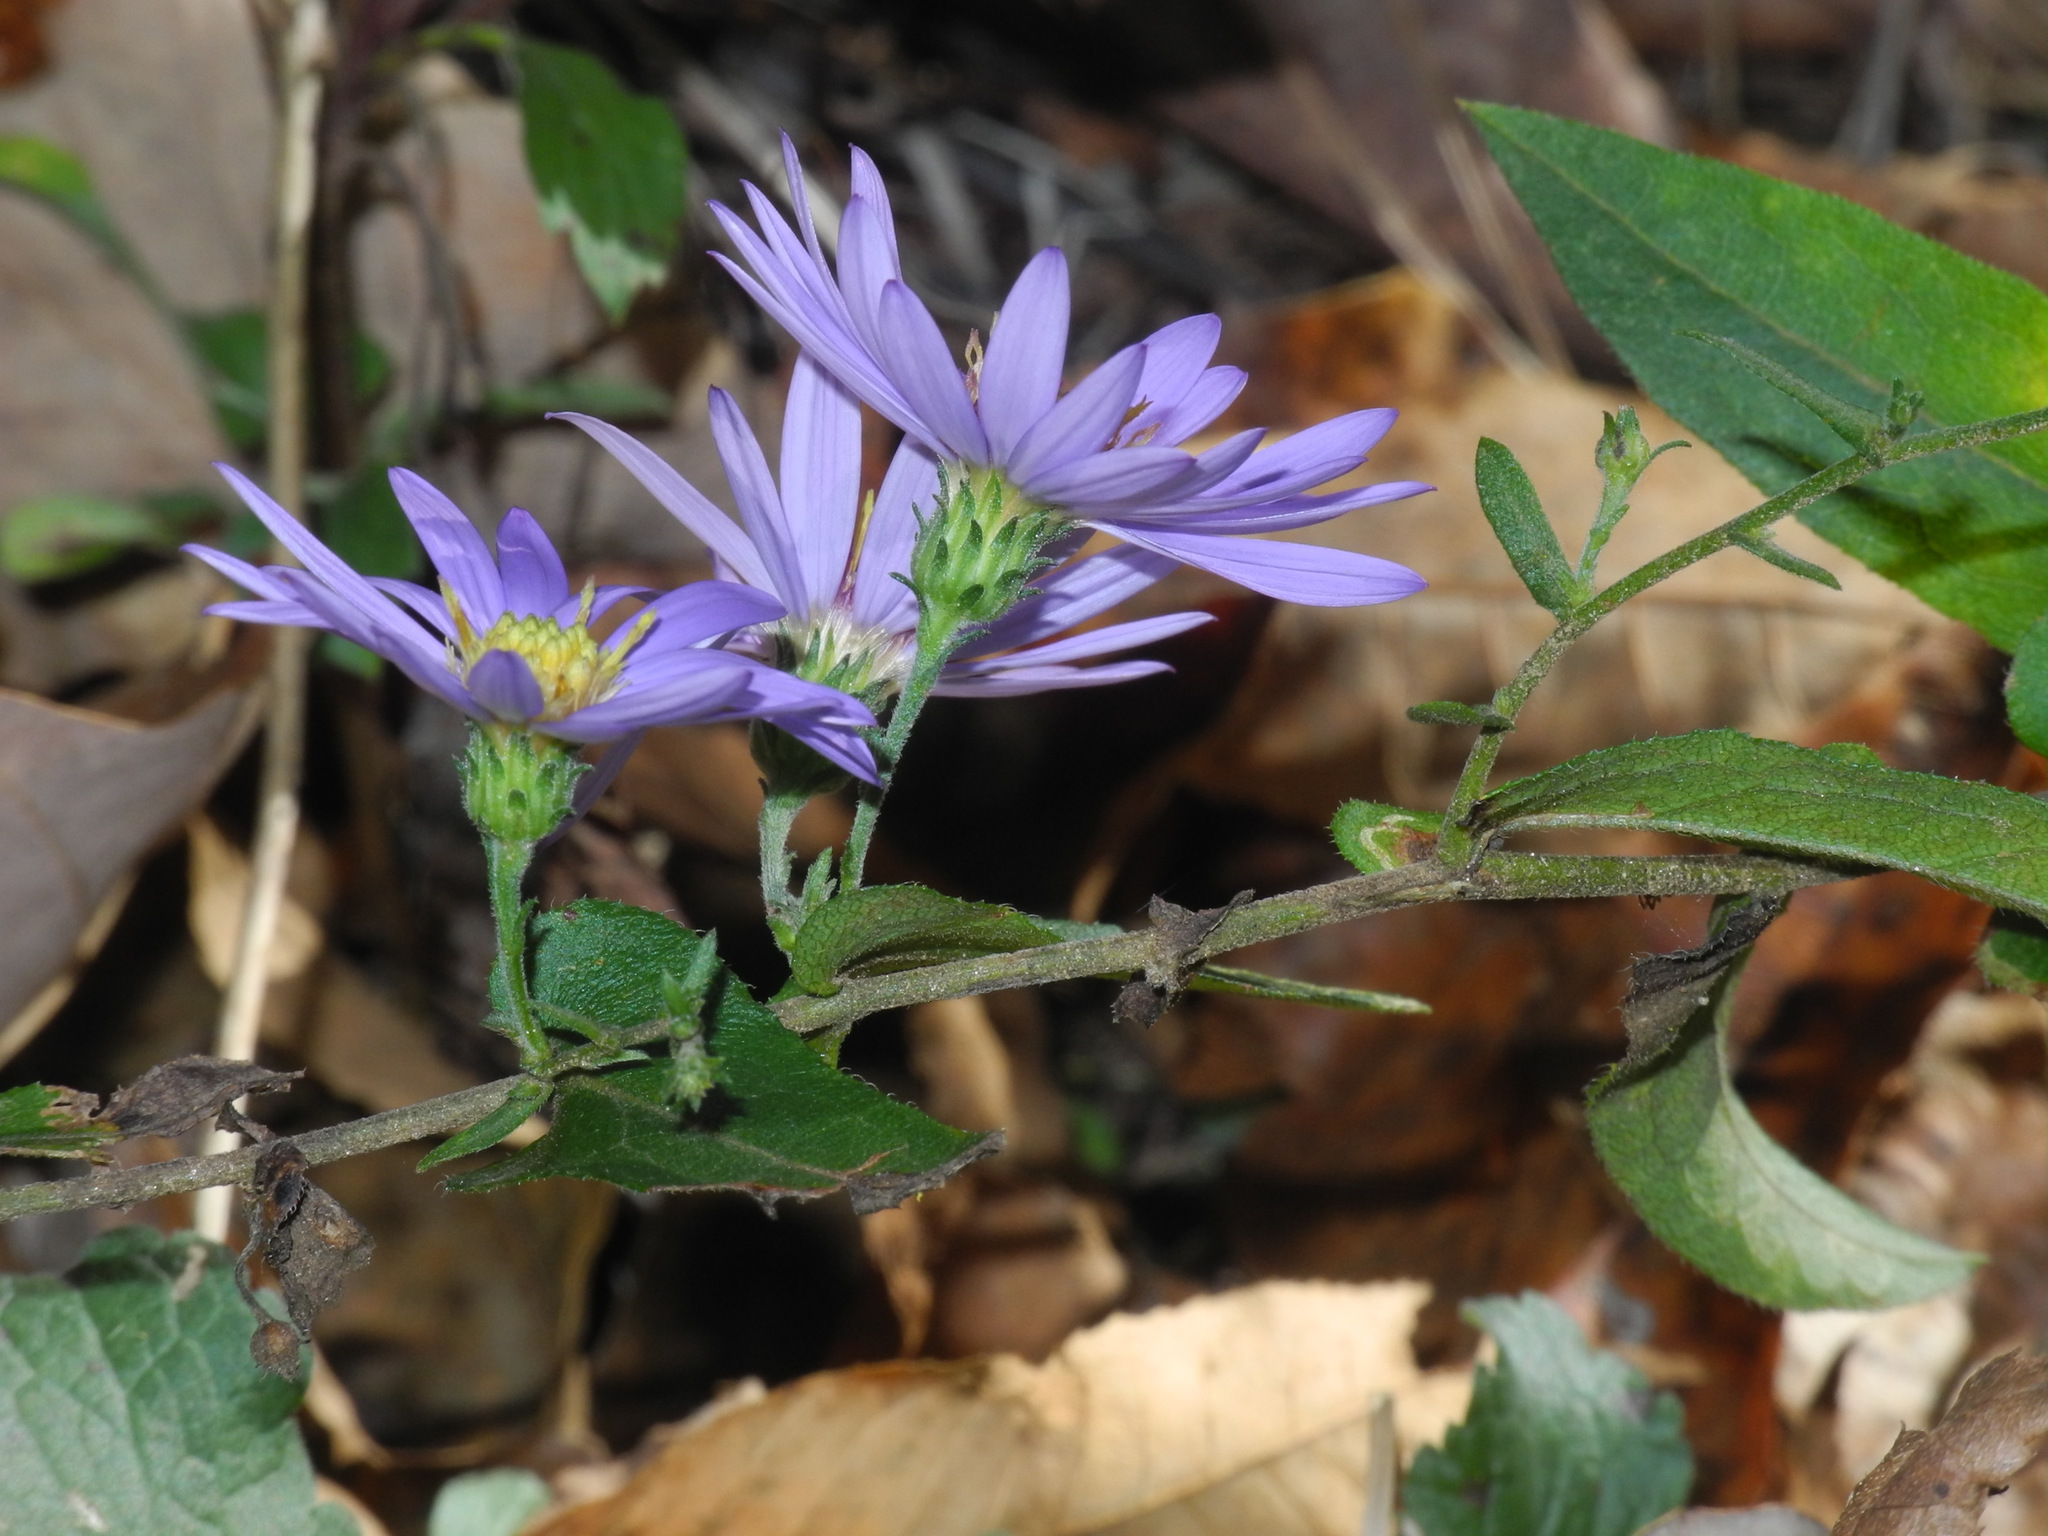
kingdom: Plantae
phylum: Tracheophyta
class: Magnoliopsida
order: Asterales
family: Asteraceae
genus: Symphyotrichum
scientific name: Symphyotrichum patens
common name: Late purple aster
